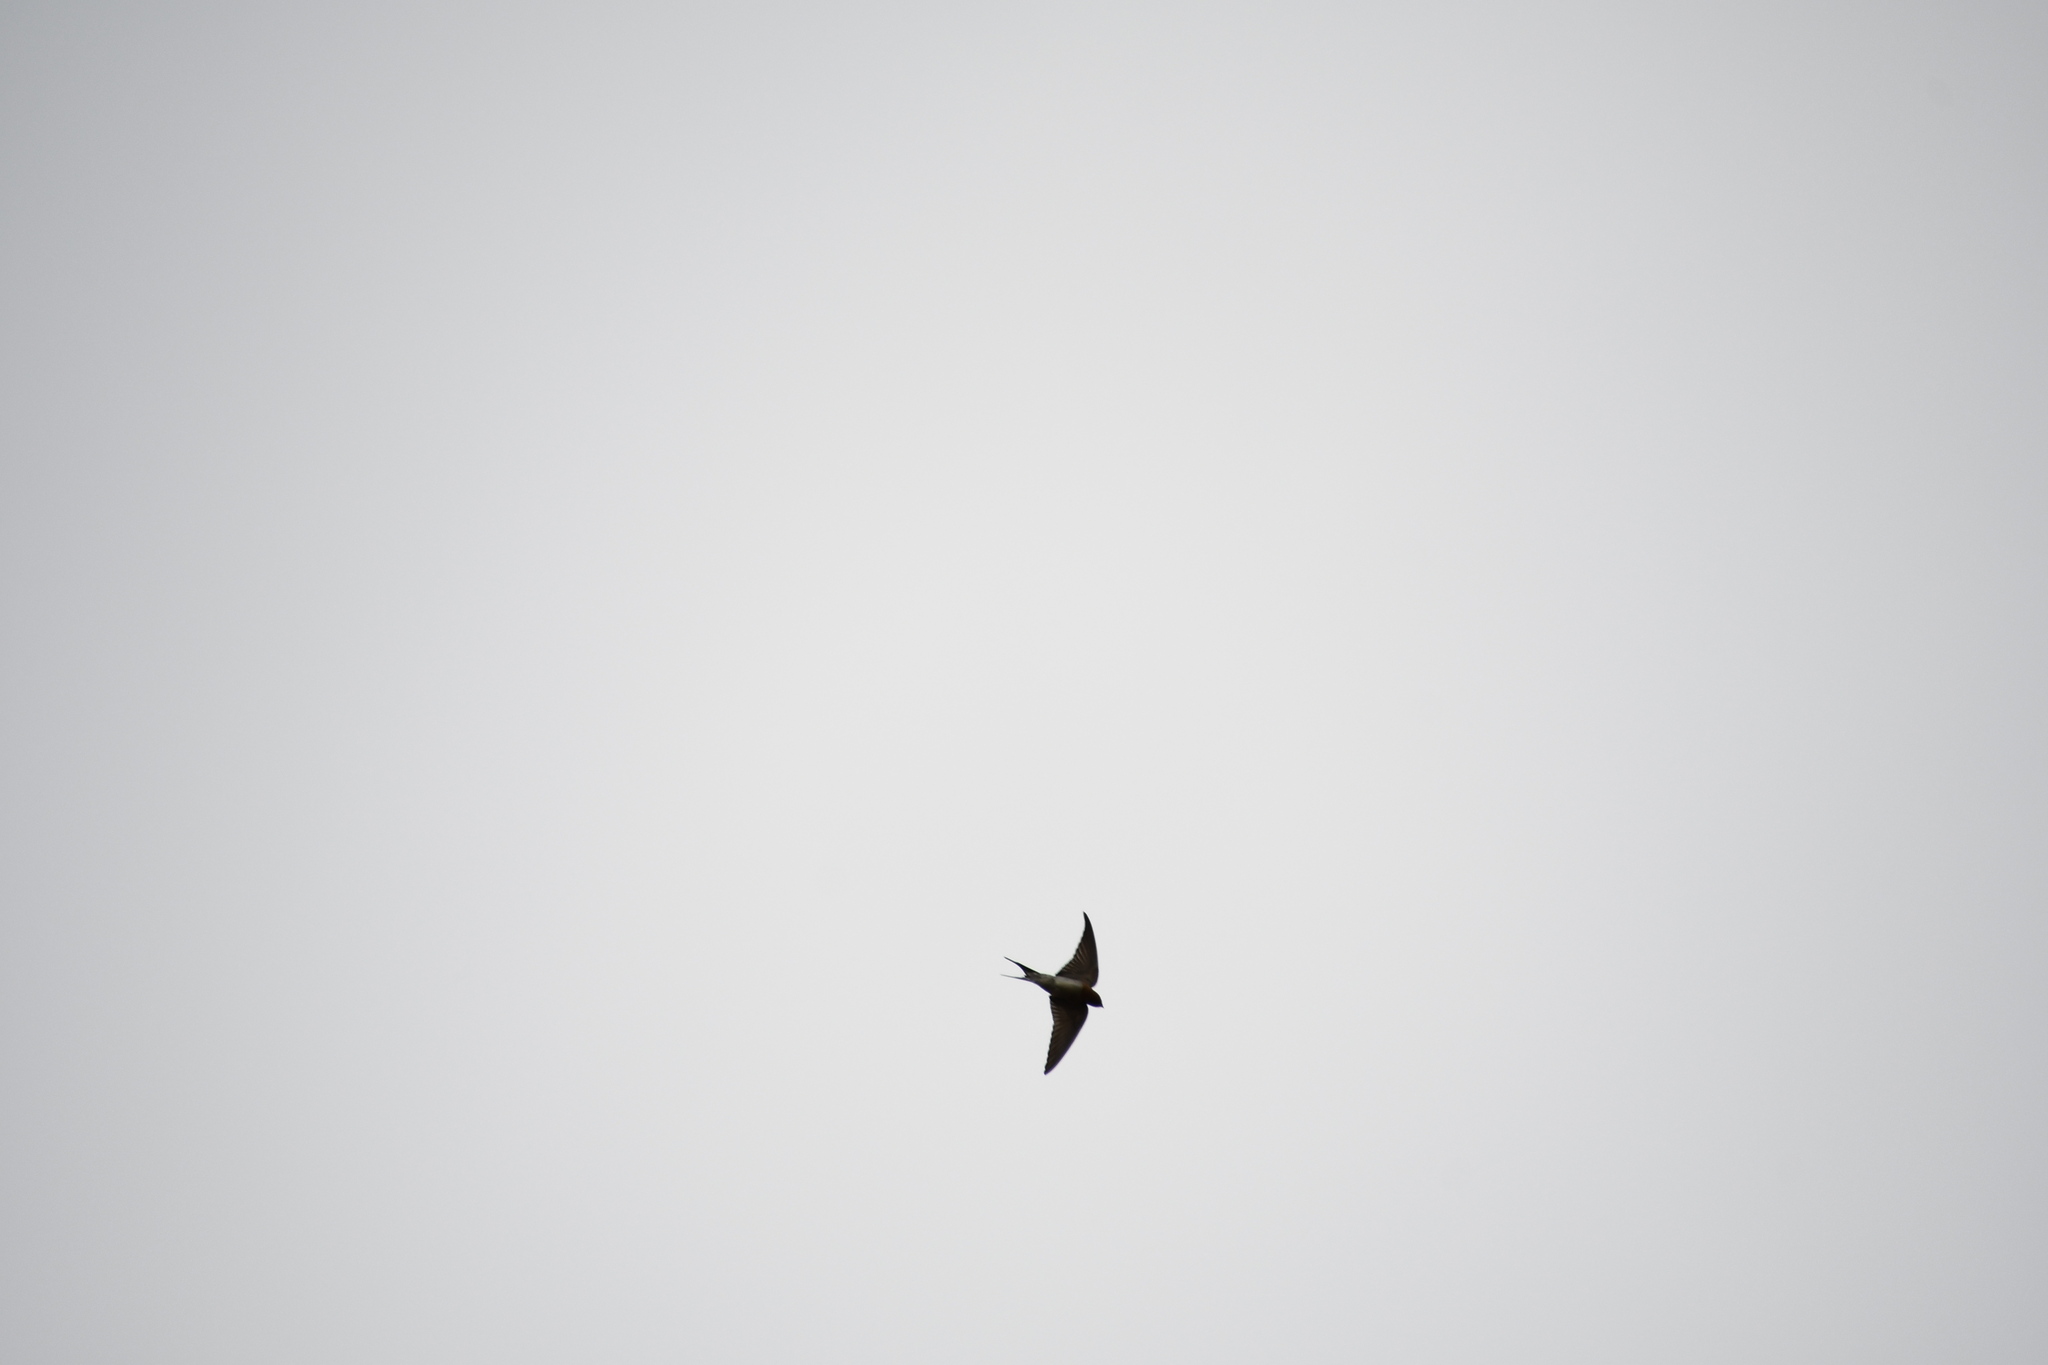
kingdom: Animalia
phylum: Chordata
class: Aves
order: Passeriformes
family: Hirundinidae
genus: Hirundo
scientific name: Hirundo neoxena
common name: Welcome swallow
